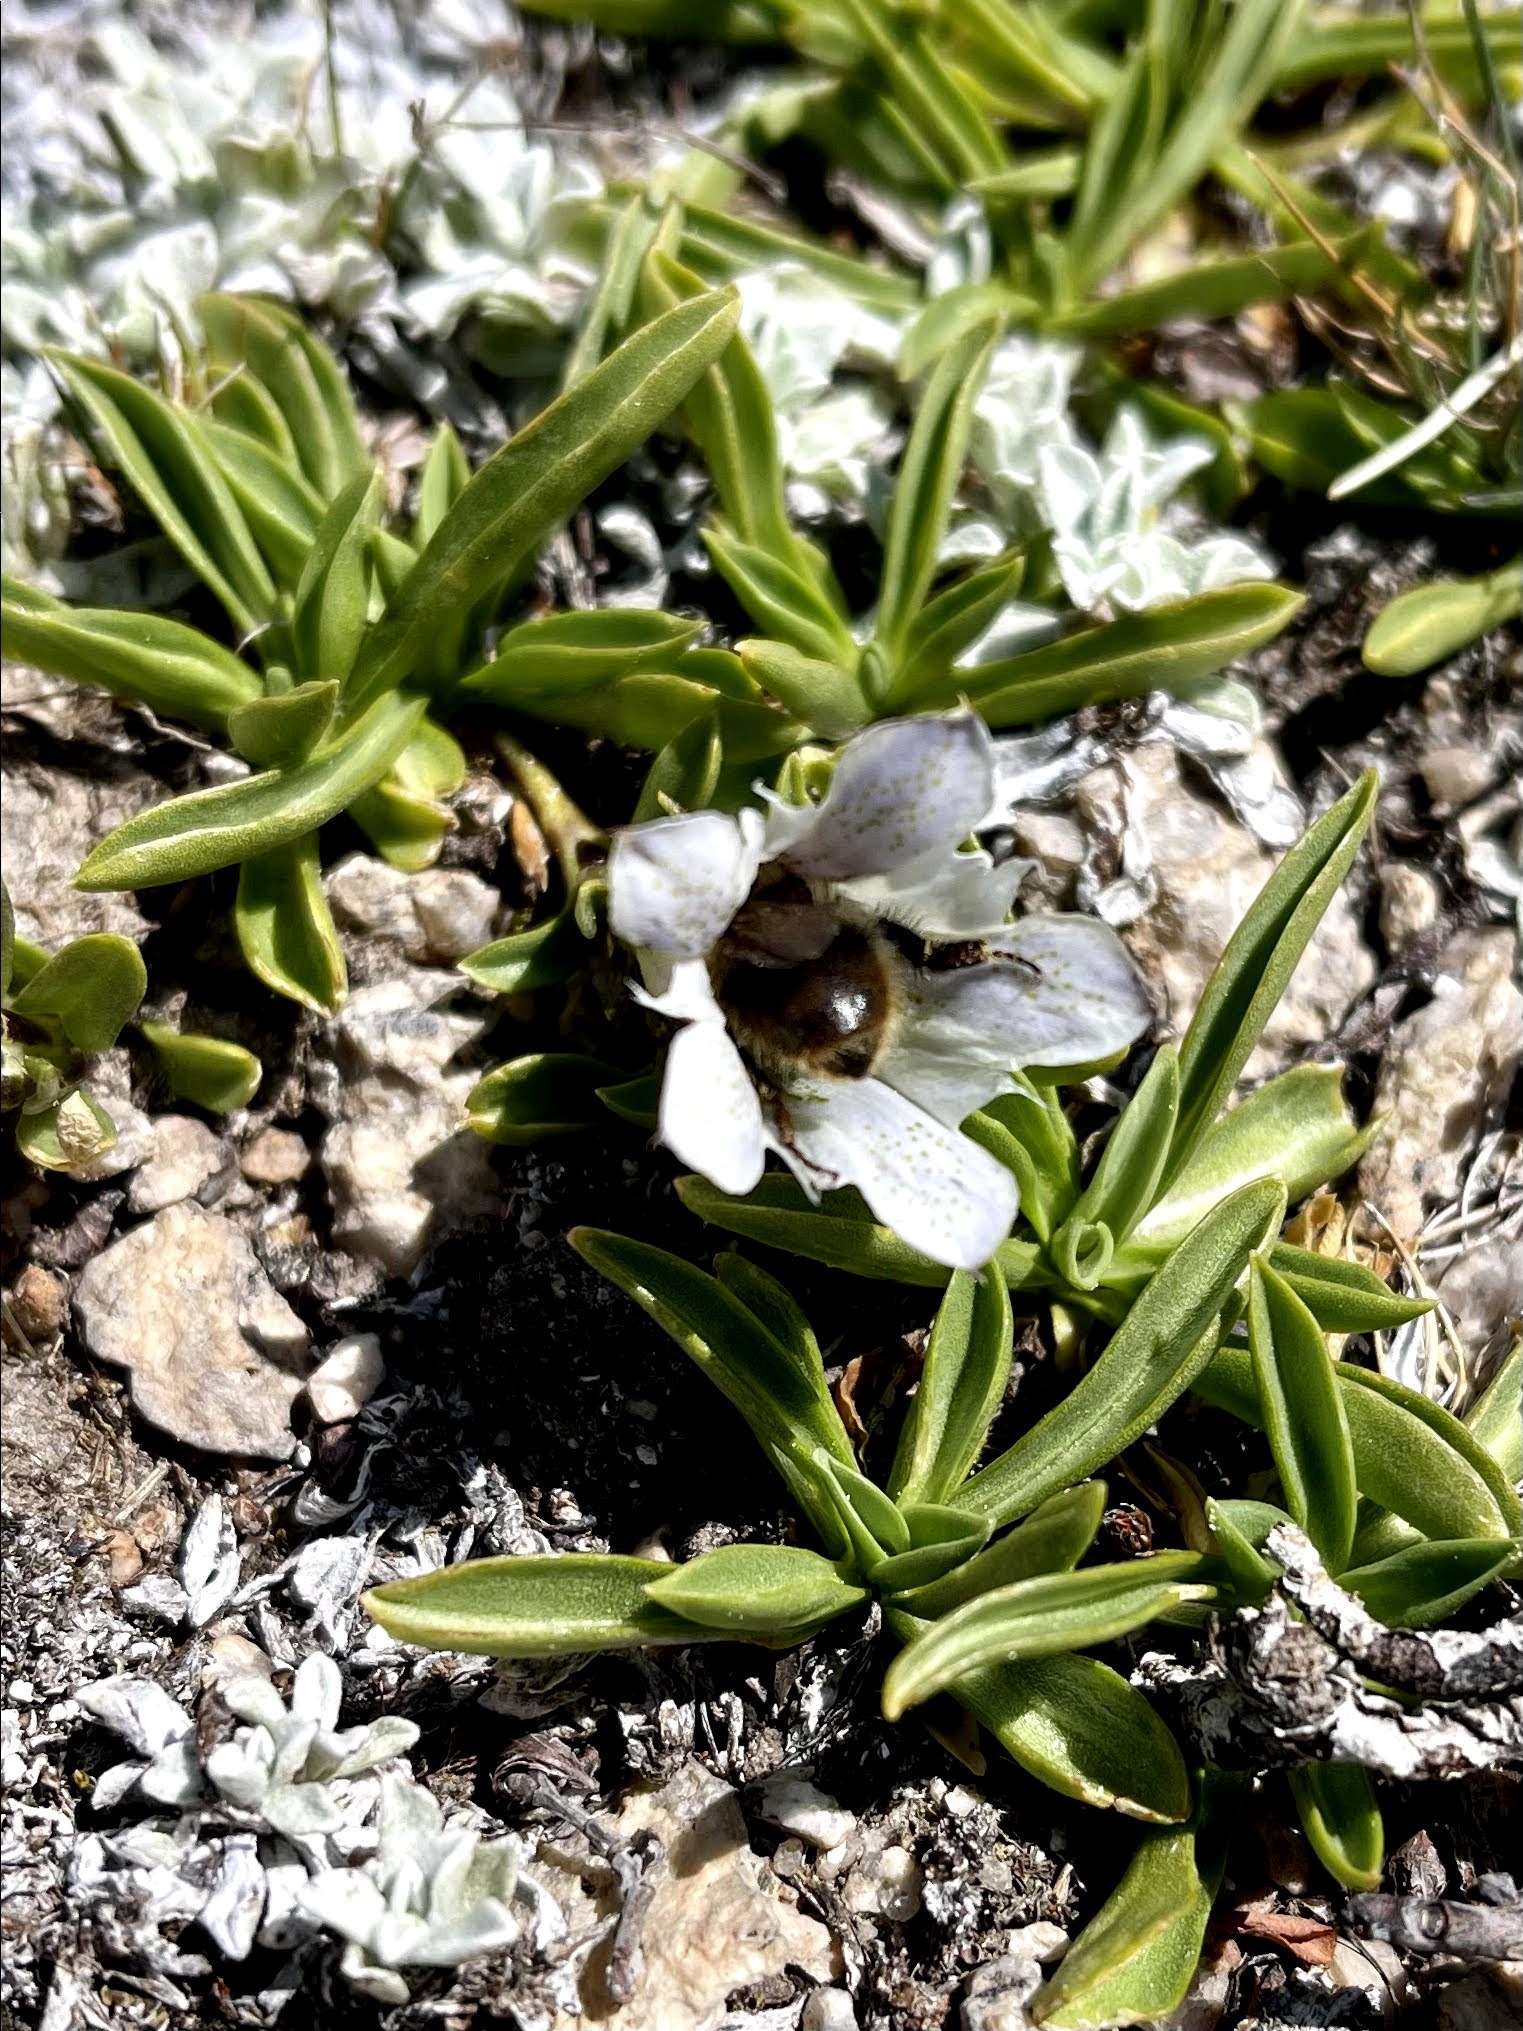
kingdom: Plantae
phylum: Tracheophyta
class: Magnoliopsida
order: Gentianales
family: Gentianaceae
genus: Gentiana
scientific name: Gentiana newberryi
